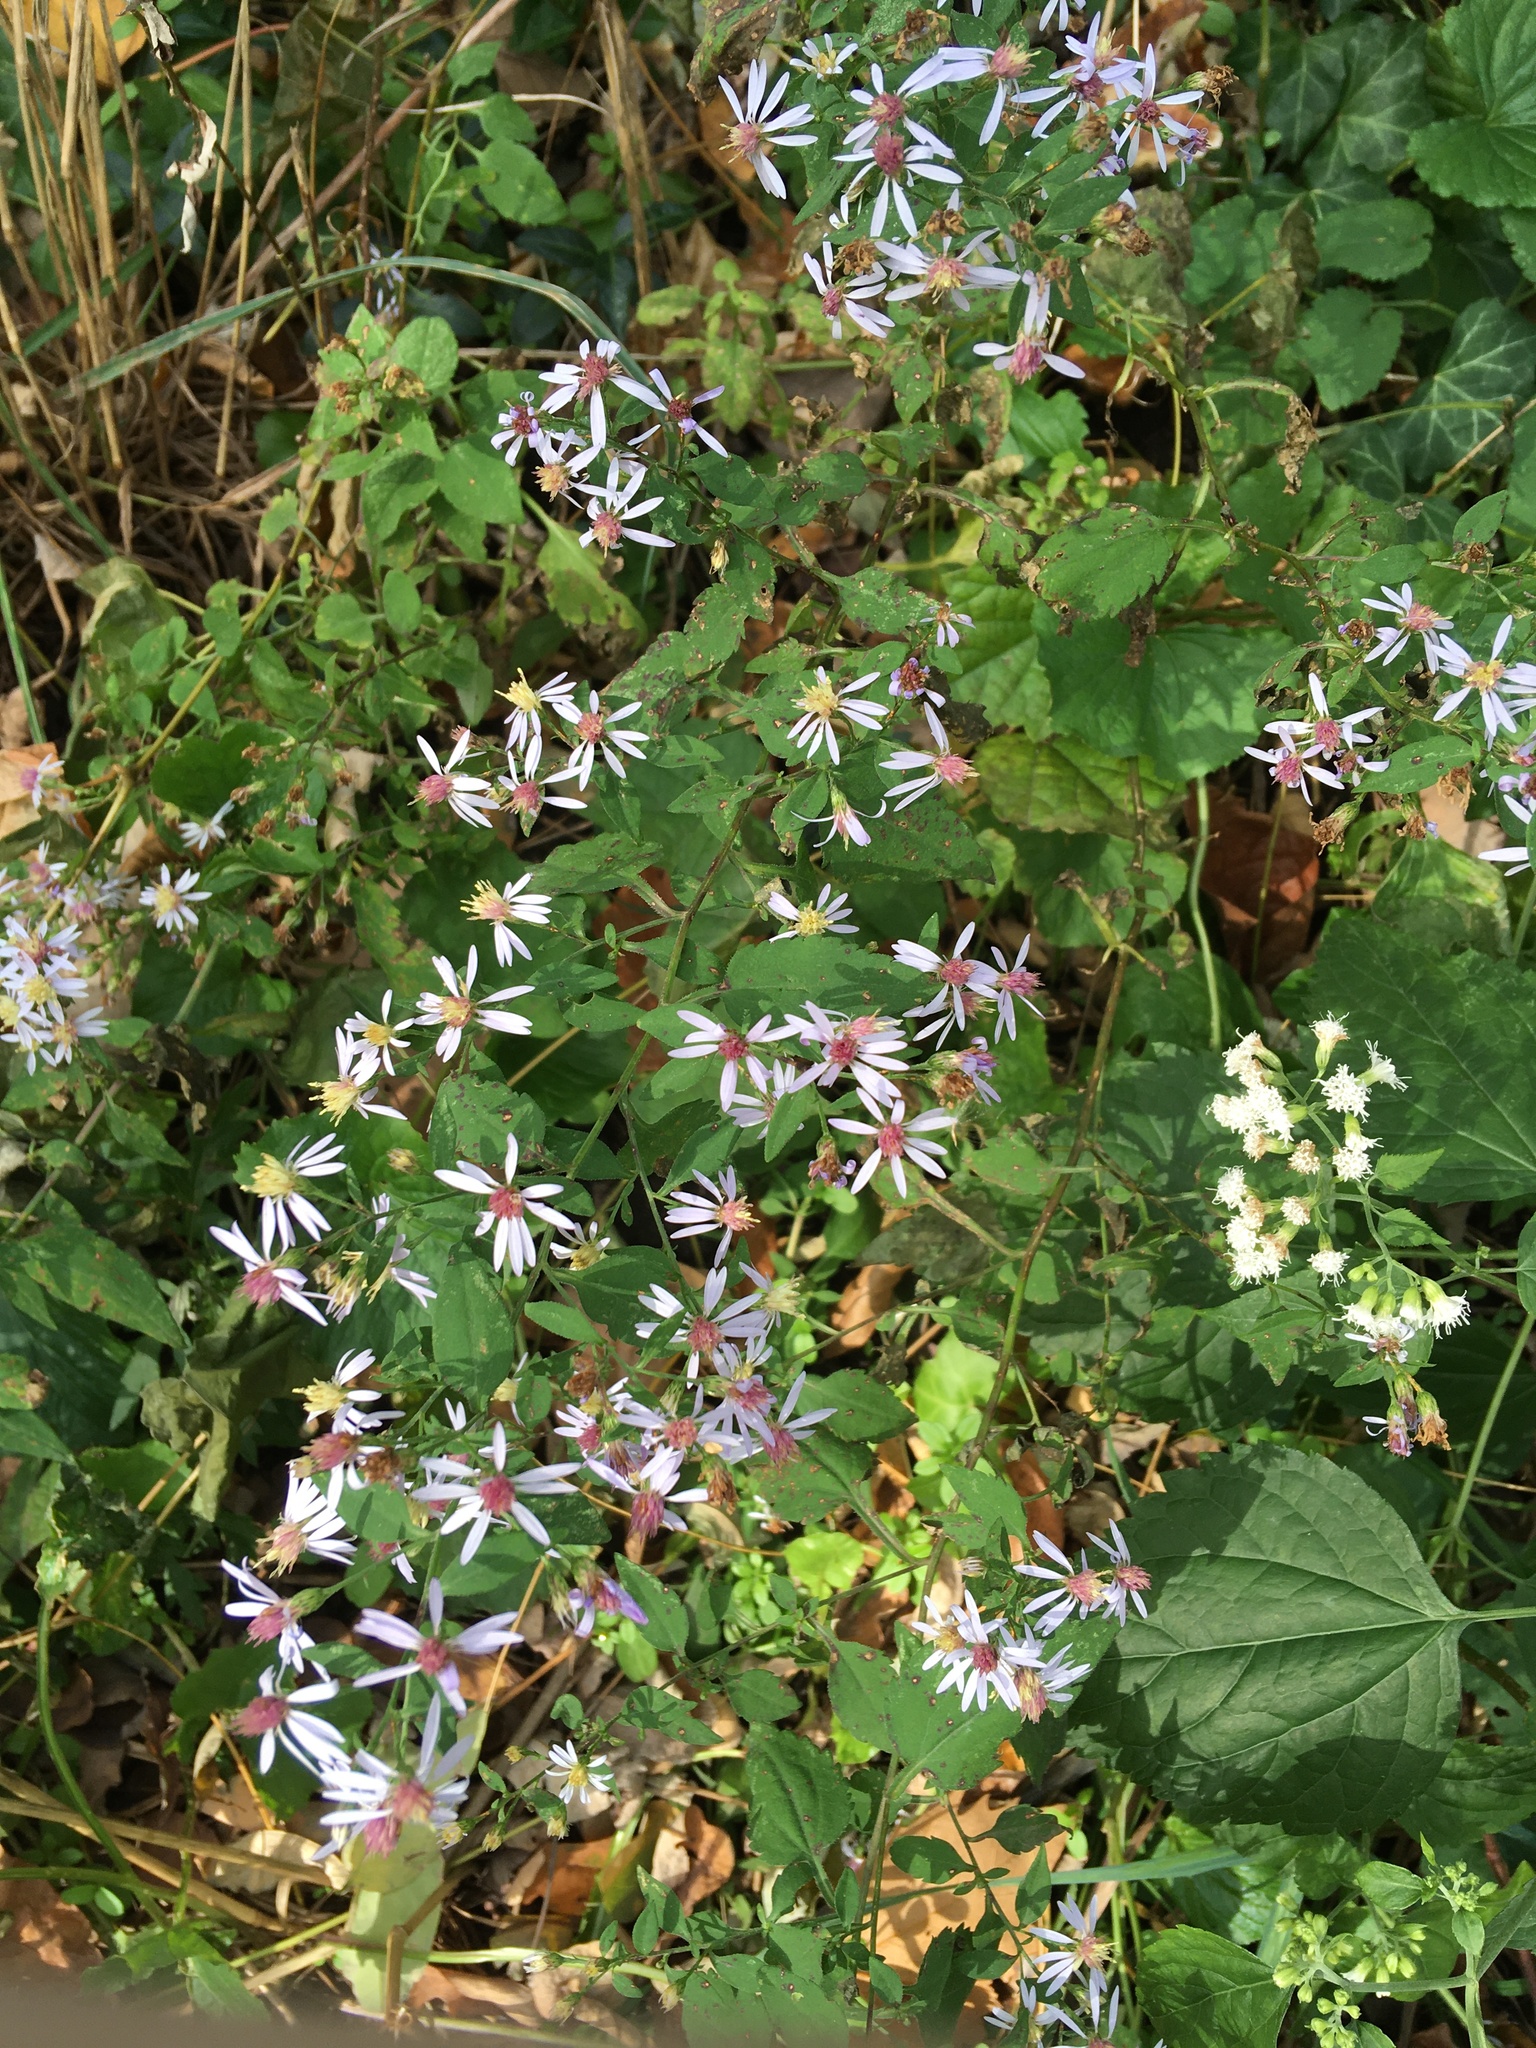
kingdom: Plantae
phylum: Tracheophyta
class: Magnoliopsida
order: Asterales
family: Asteraceae
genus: Symphyotrichum
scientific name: Symphyotrichum cordifolium
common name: Beeweed
